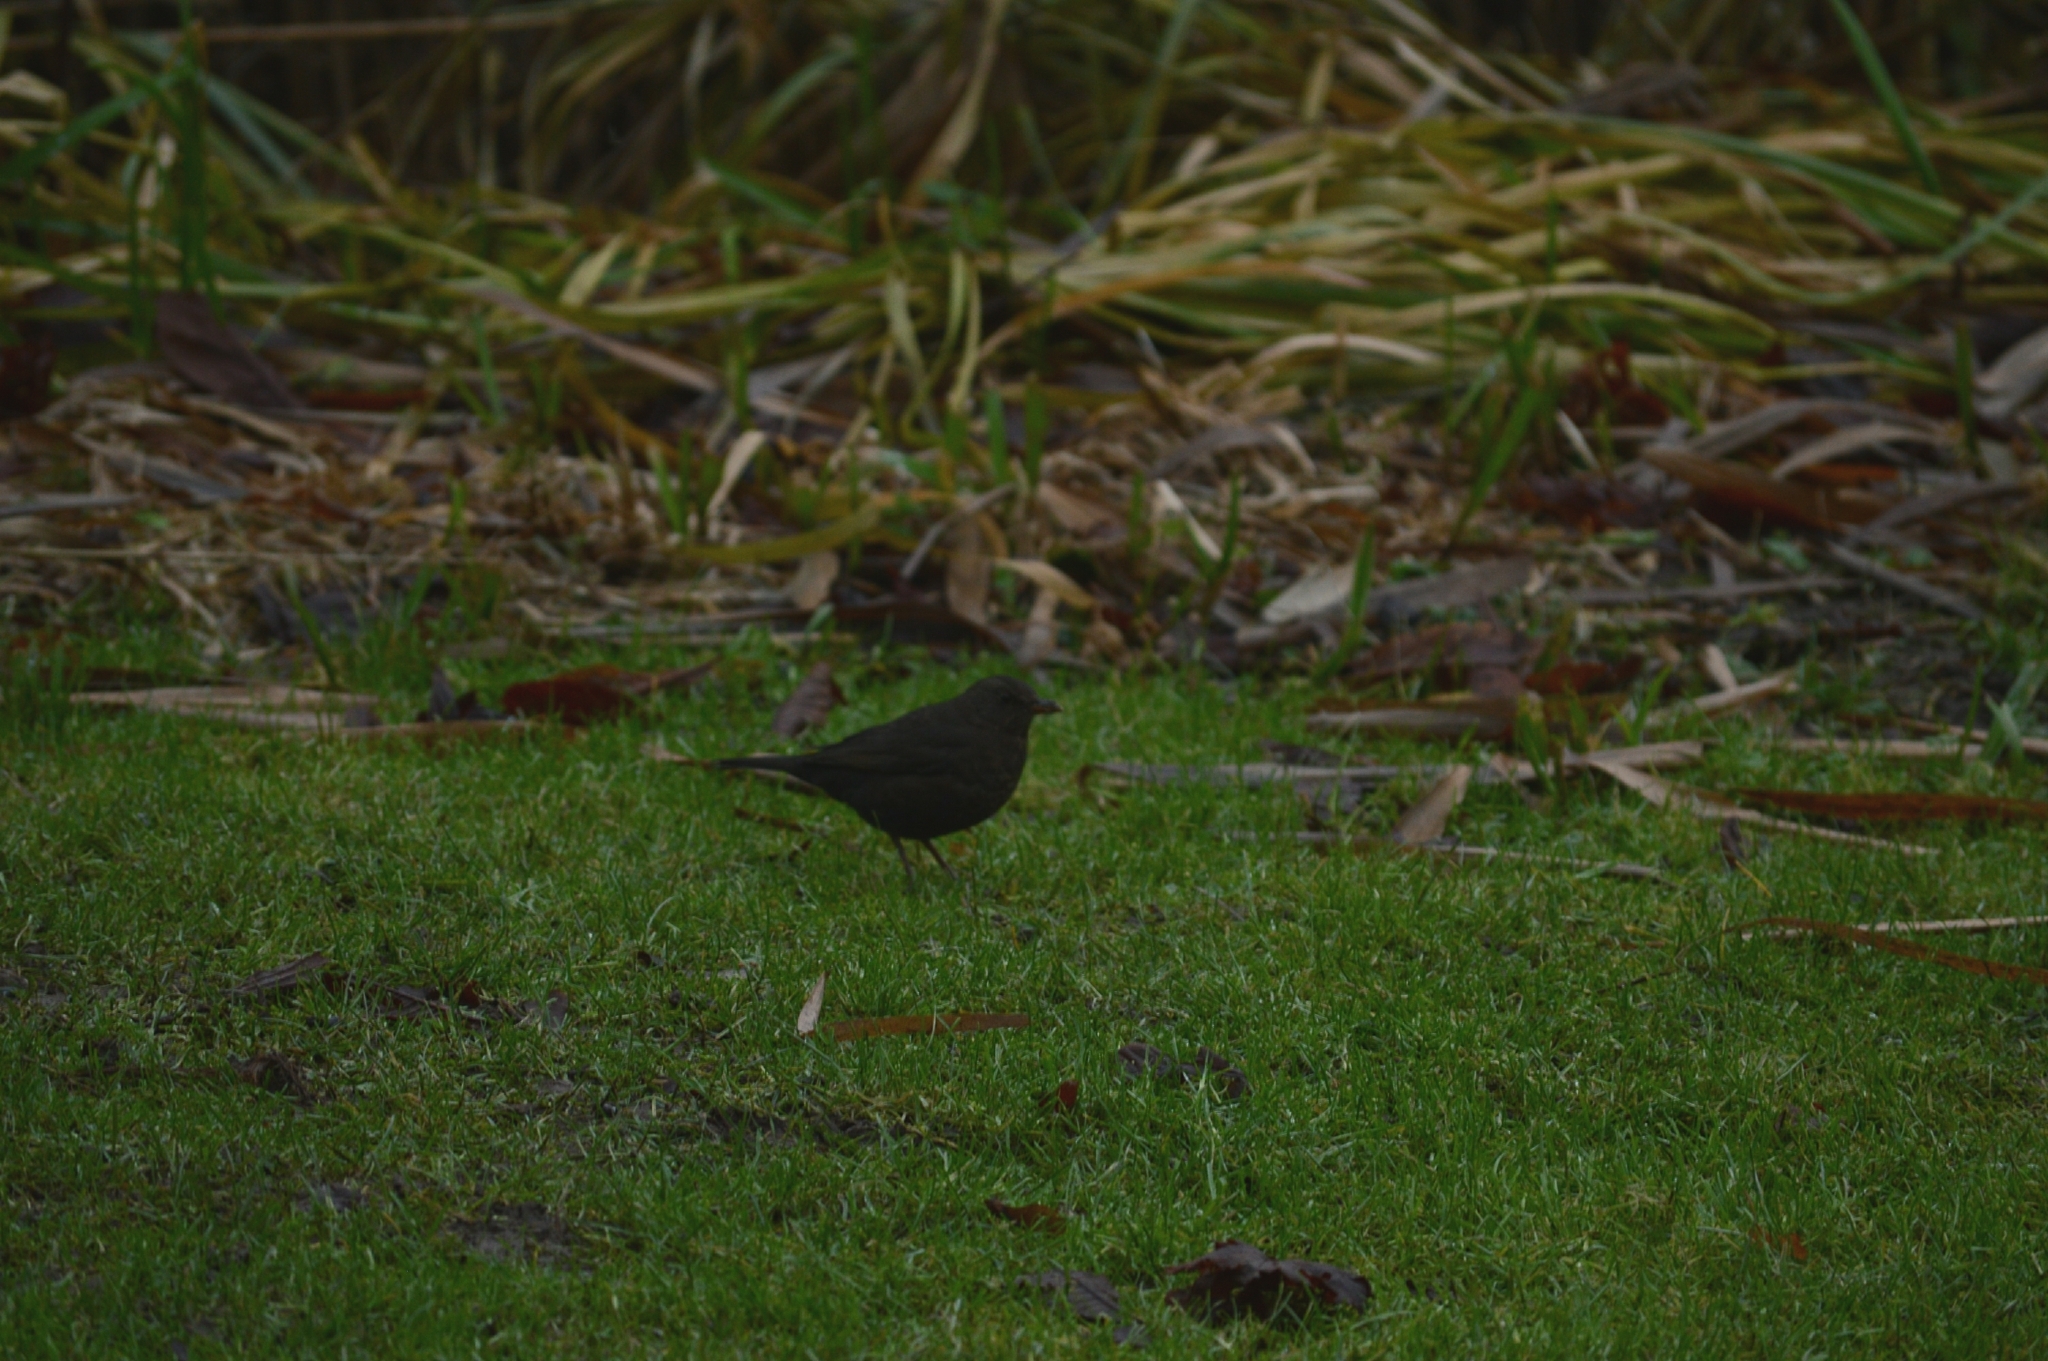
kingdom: Animalia
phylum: Chordata
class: Aves
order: Passeriformes
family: Turdidae
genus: Turdus
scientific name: Turdus merula
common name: Common blackbird
